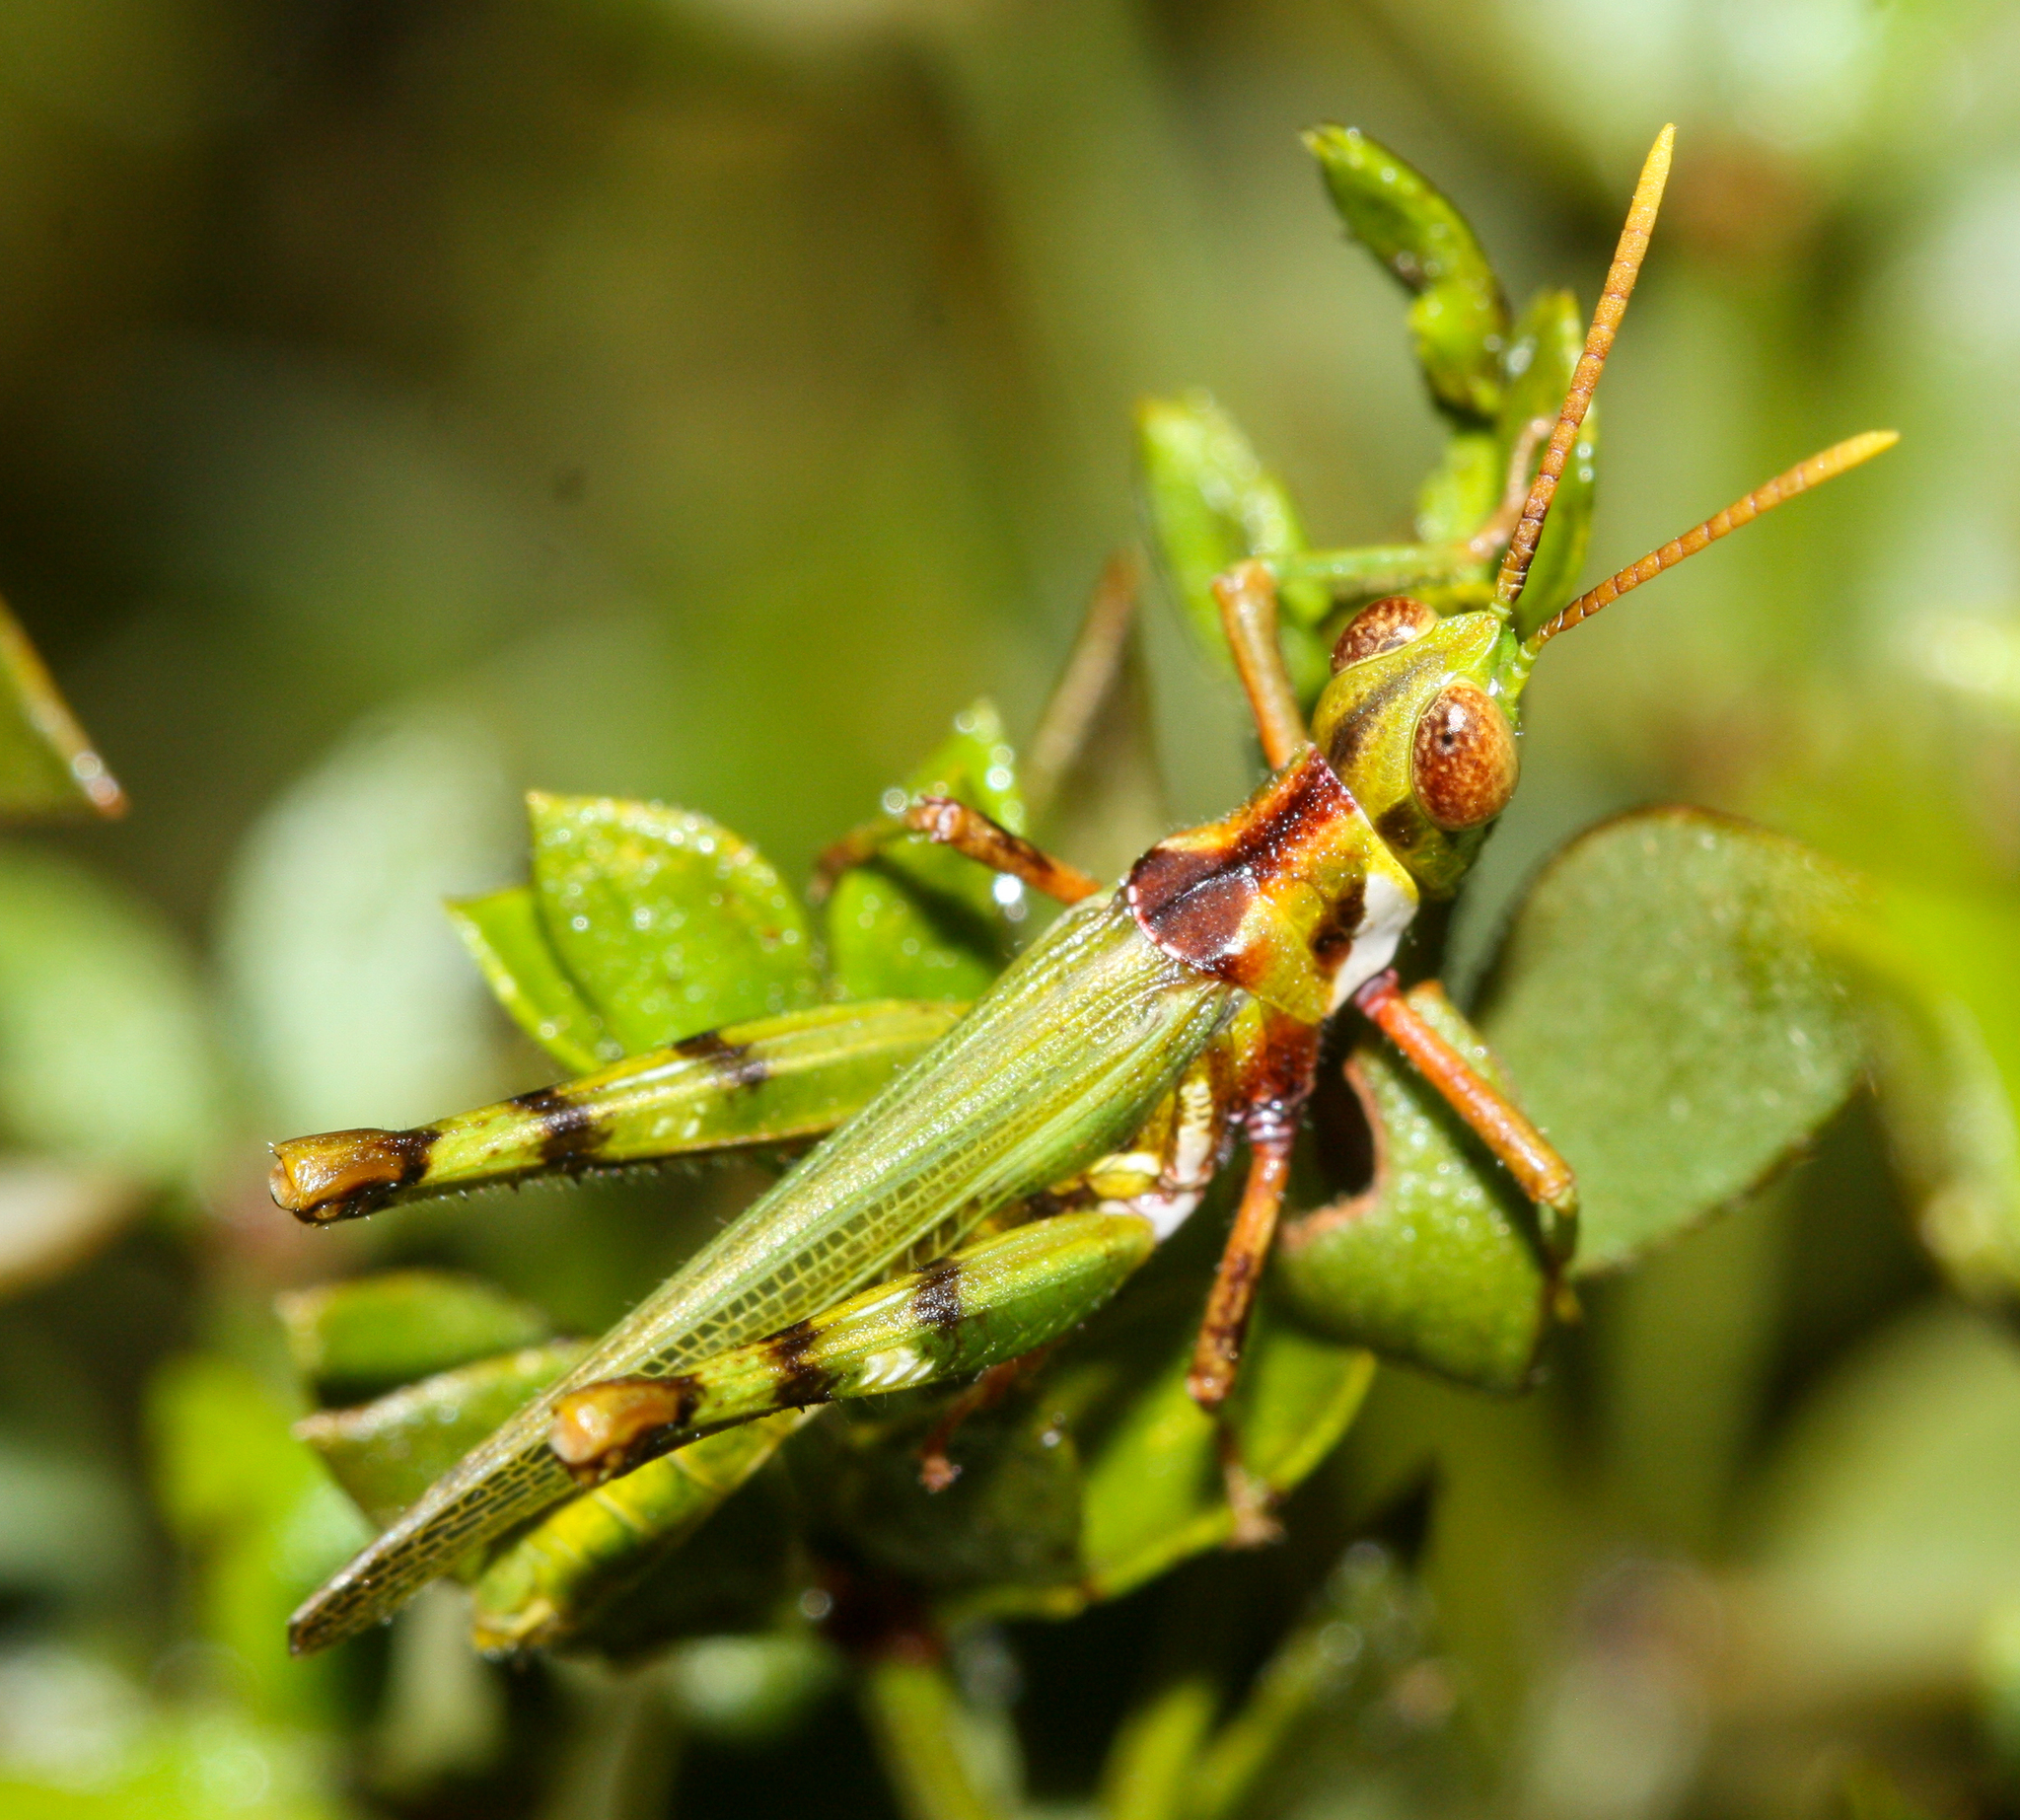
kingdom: Animalia
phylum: Arthropoda
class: Insecta
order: Orthoptera
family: Acrididae
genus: Bootettix
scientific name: Bootettix argentatus
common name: Creosote bush grasshopper
